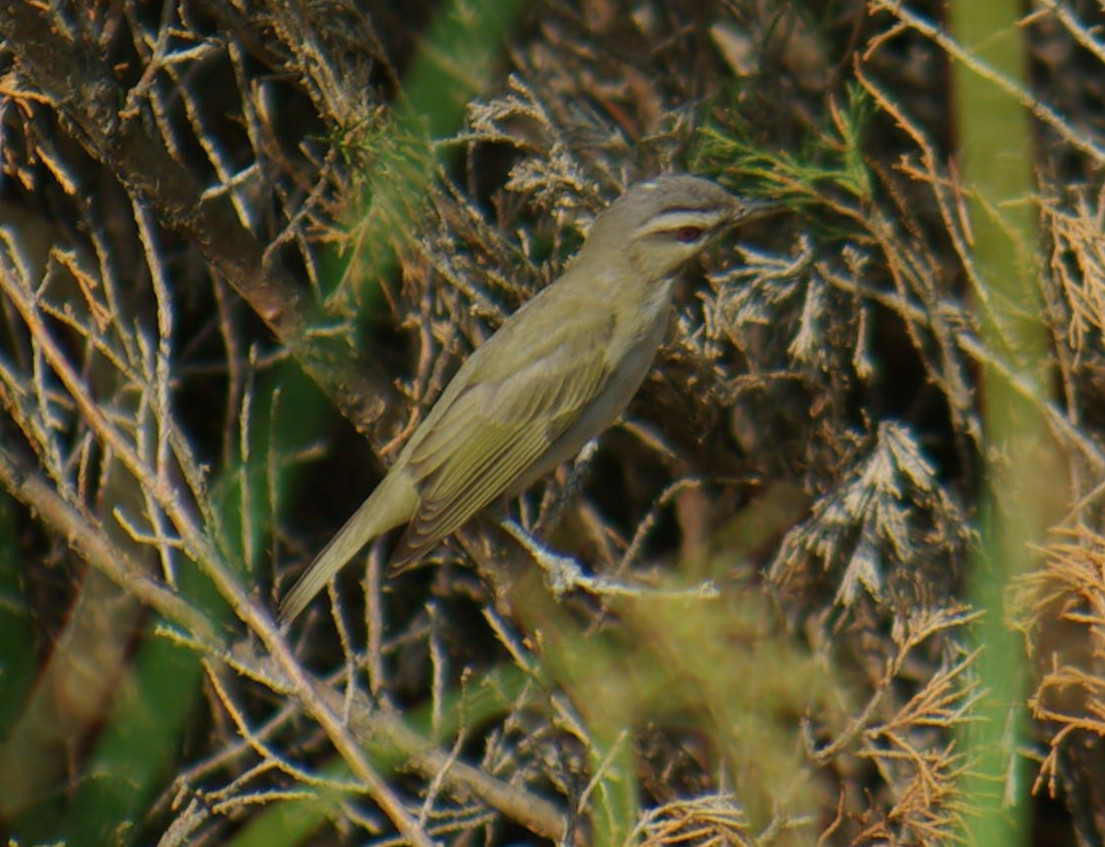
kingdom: Animalia
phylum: Chordata
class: Aves
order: Passeriformes
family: Vireonidae
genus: Vireo
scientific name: Vireo olivaceus
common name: Red-eyed vireo
